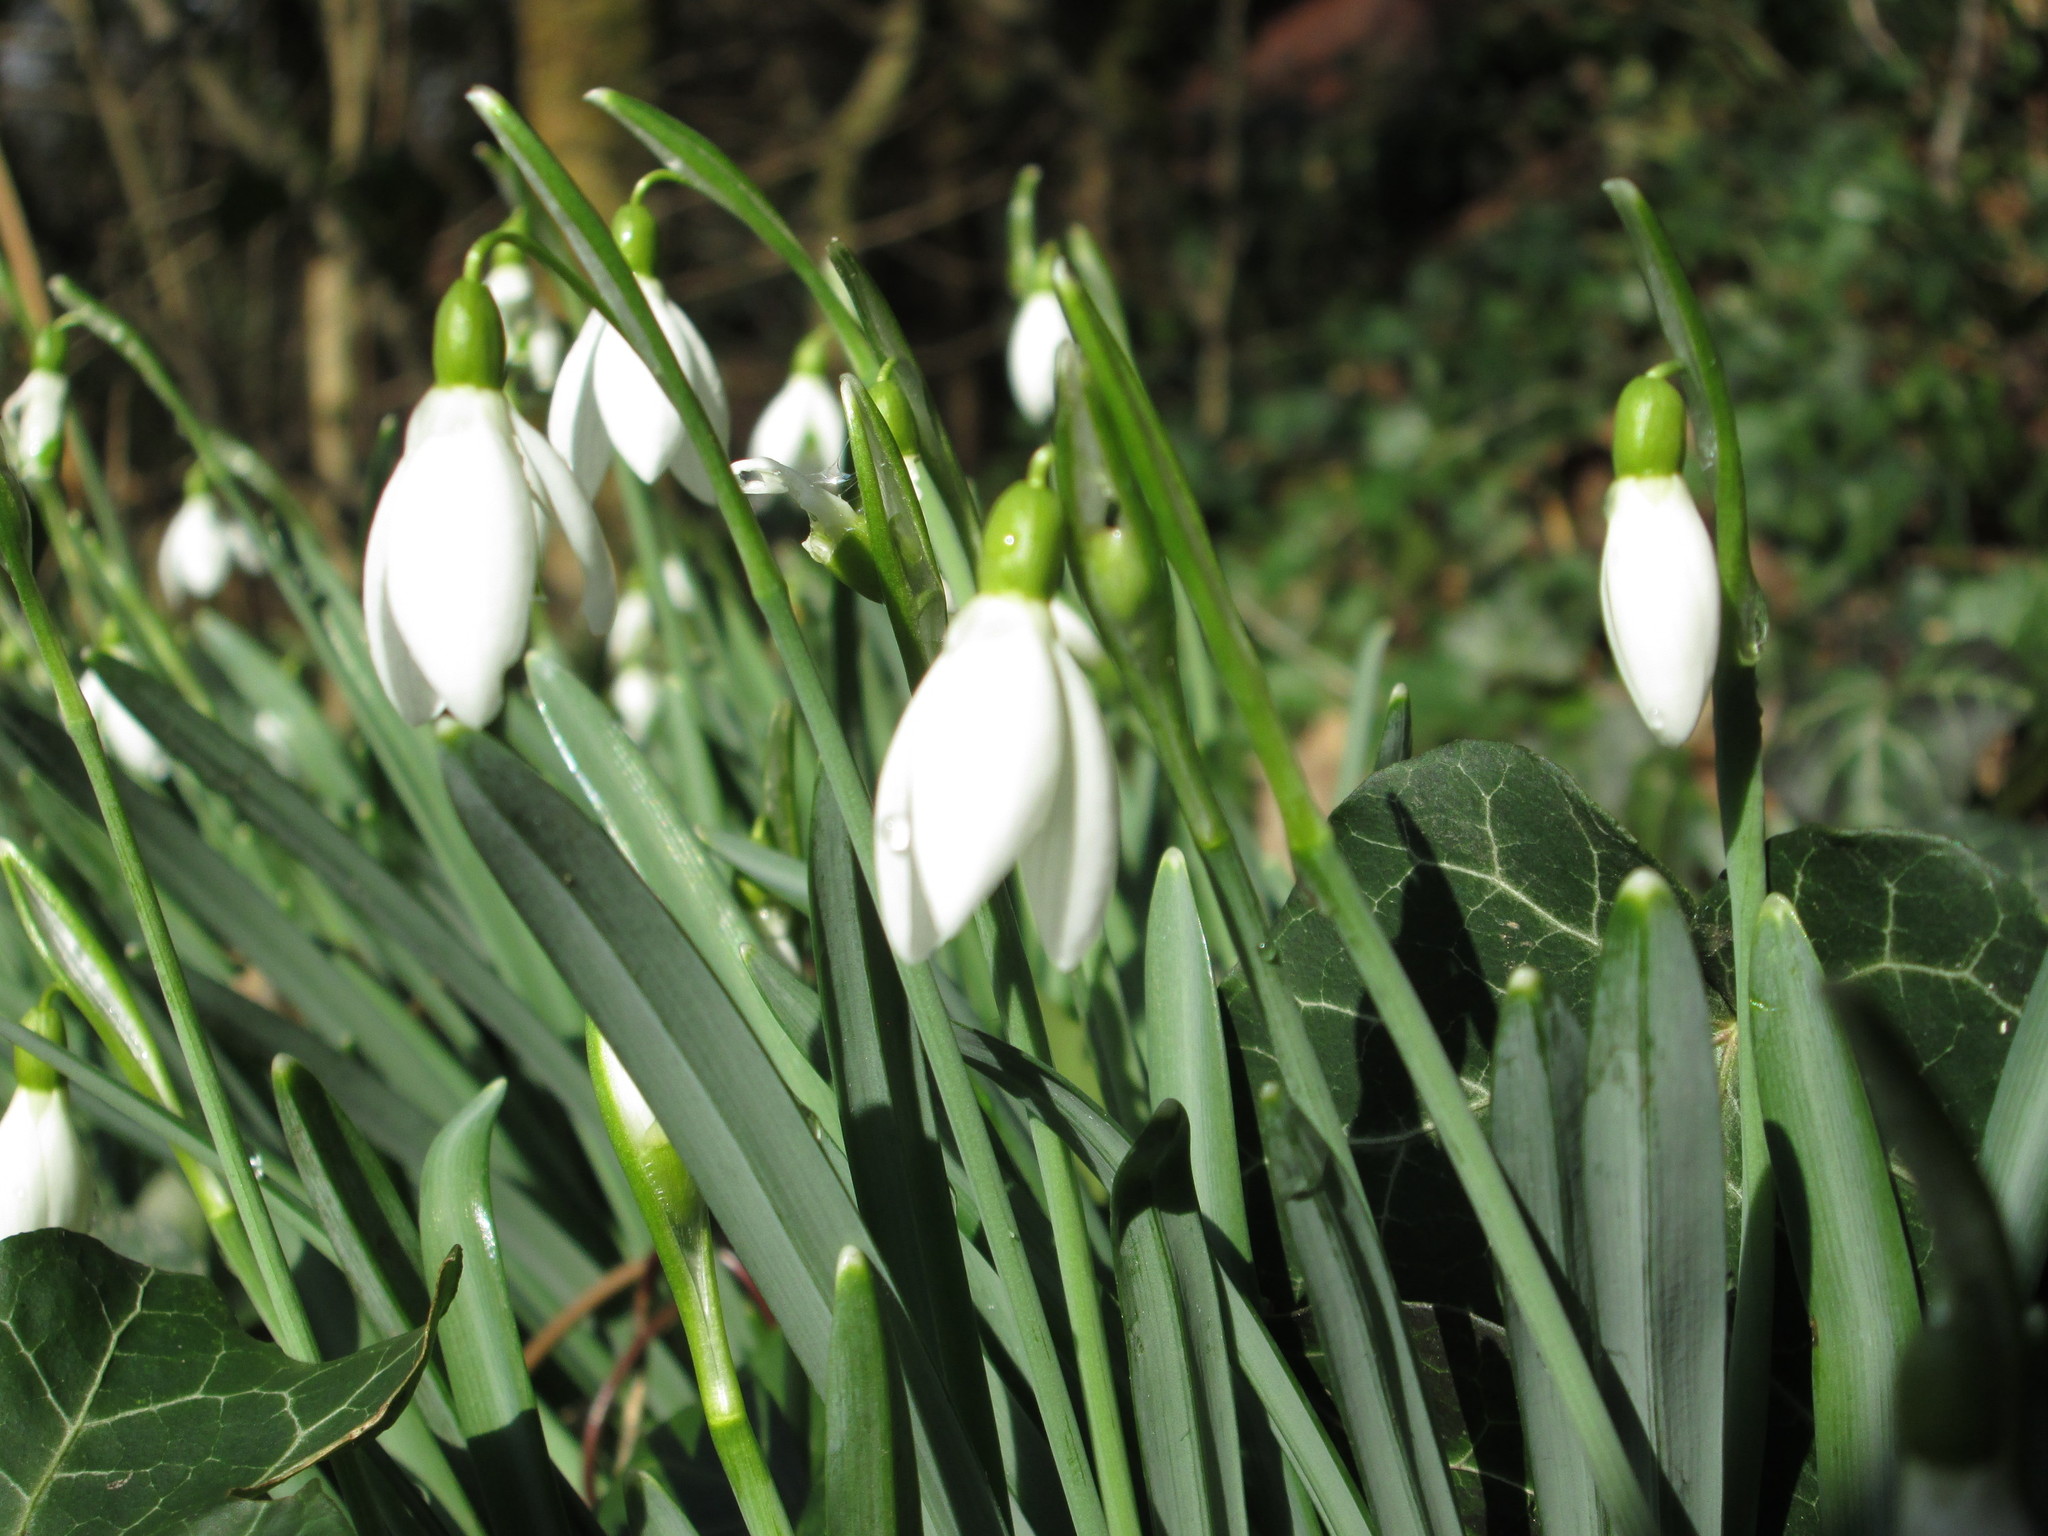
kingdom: Plantae
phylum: Tracheophyta
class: Liliopsida
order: Asparagales
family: Amaryllidaceae
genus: Galanthus
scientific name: Galanthus nivalis
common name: Snowdrop
